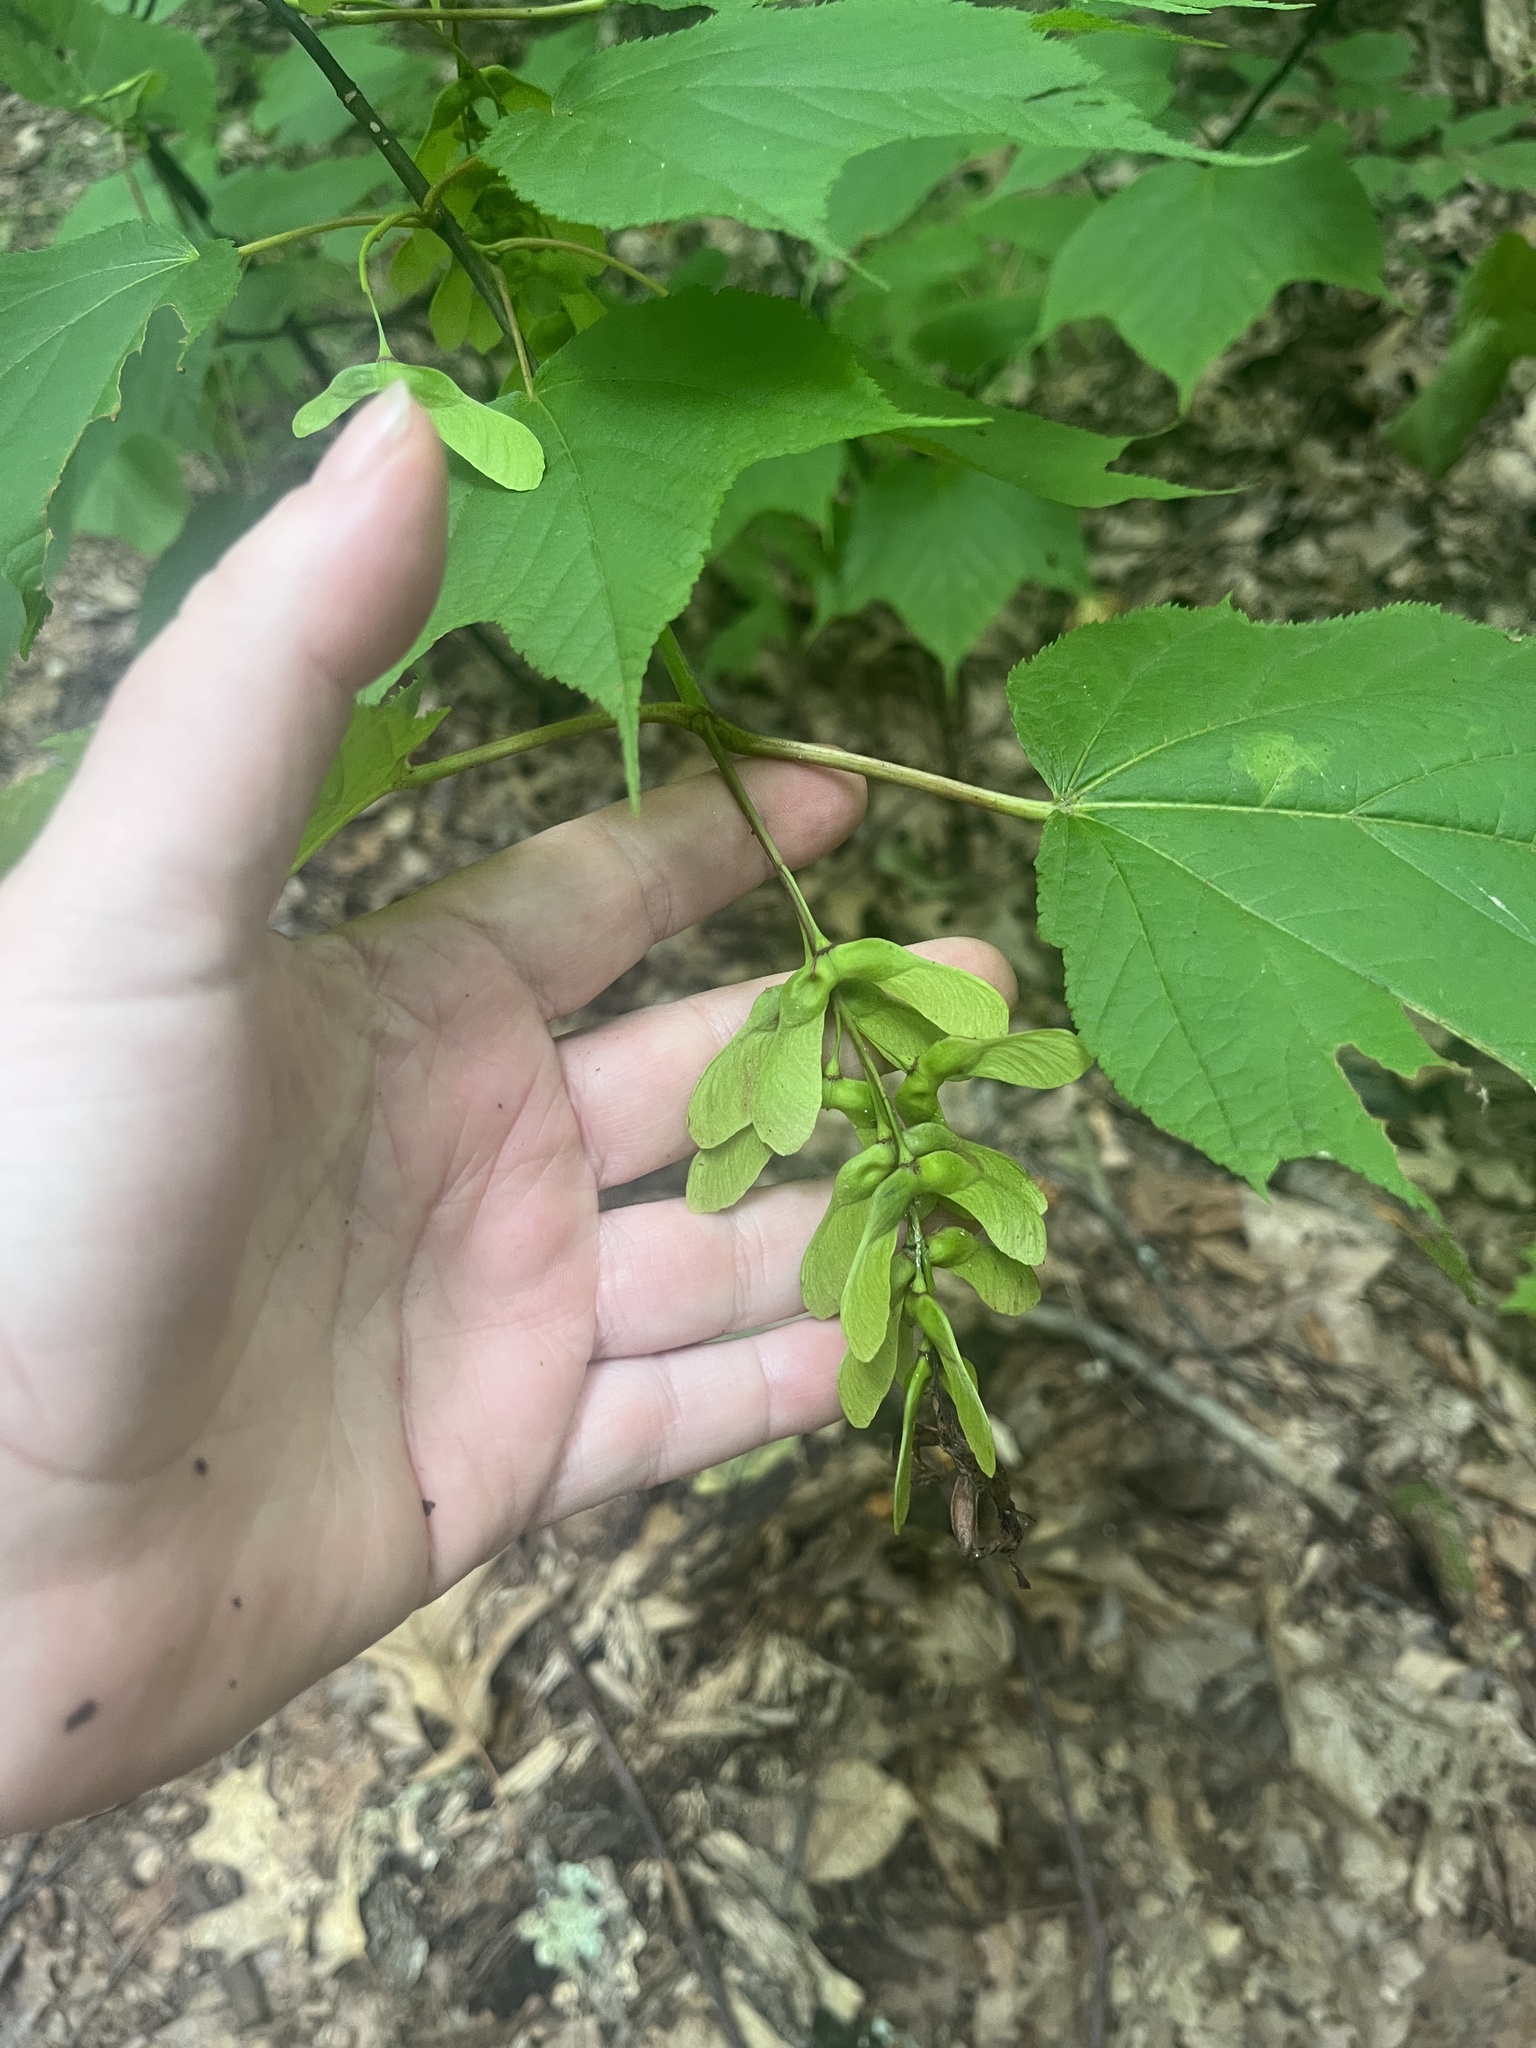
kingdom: Plantae
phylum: Tracheophyta
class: Magnoliopsida
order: Sapindales
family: Sapindaceae
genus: Acer
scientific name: Acer pensylvanicum
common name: Moosewood
